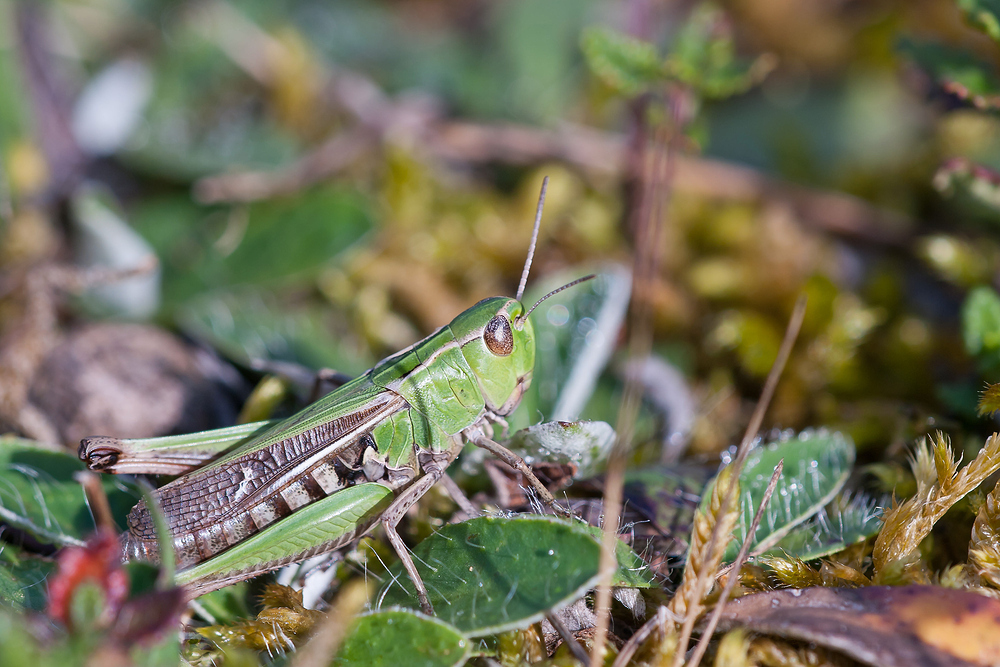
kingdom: Animalia
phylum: Arthropoda
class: Insecta
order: Orthoptera
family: Acrididae
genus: Stenobothrus
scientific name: Stenobothrus lineatus
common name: Stripe-winged grasshopper
